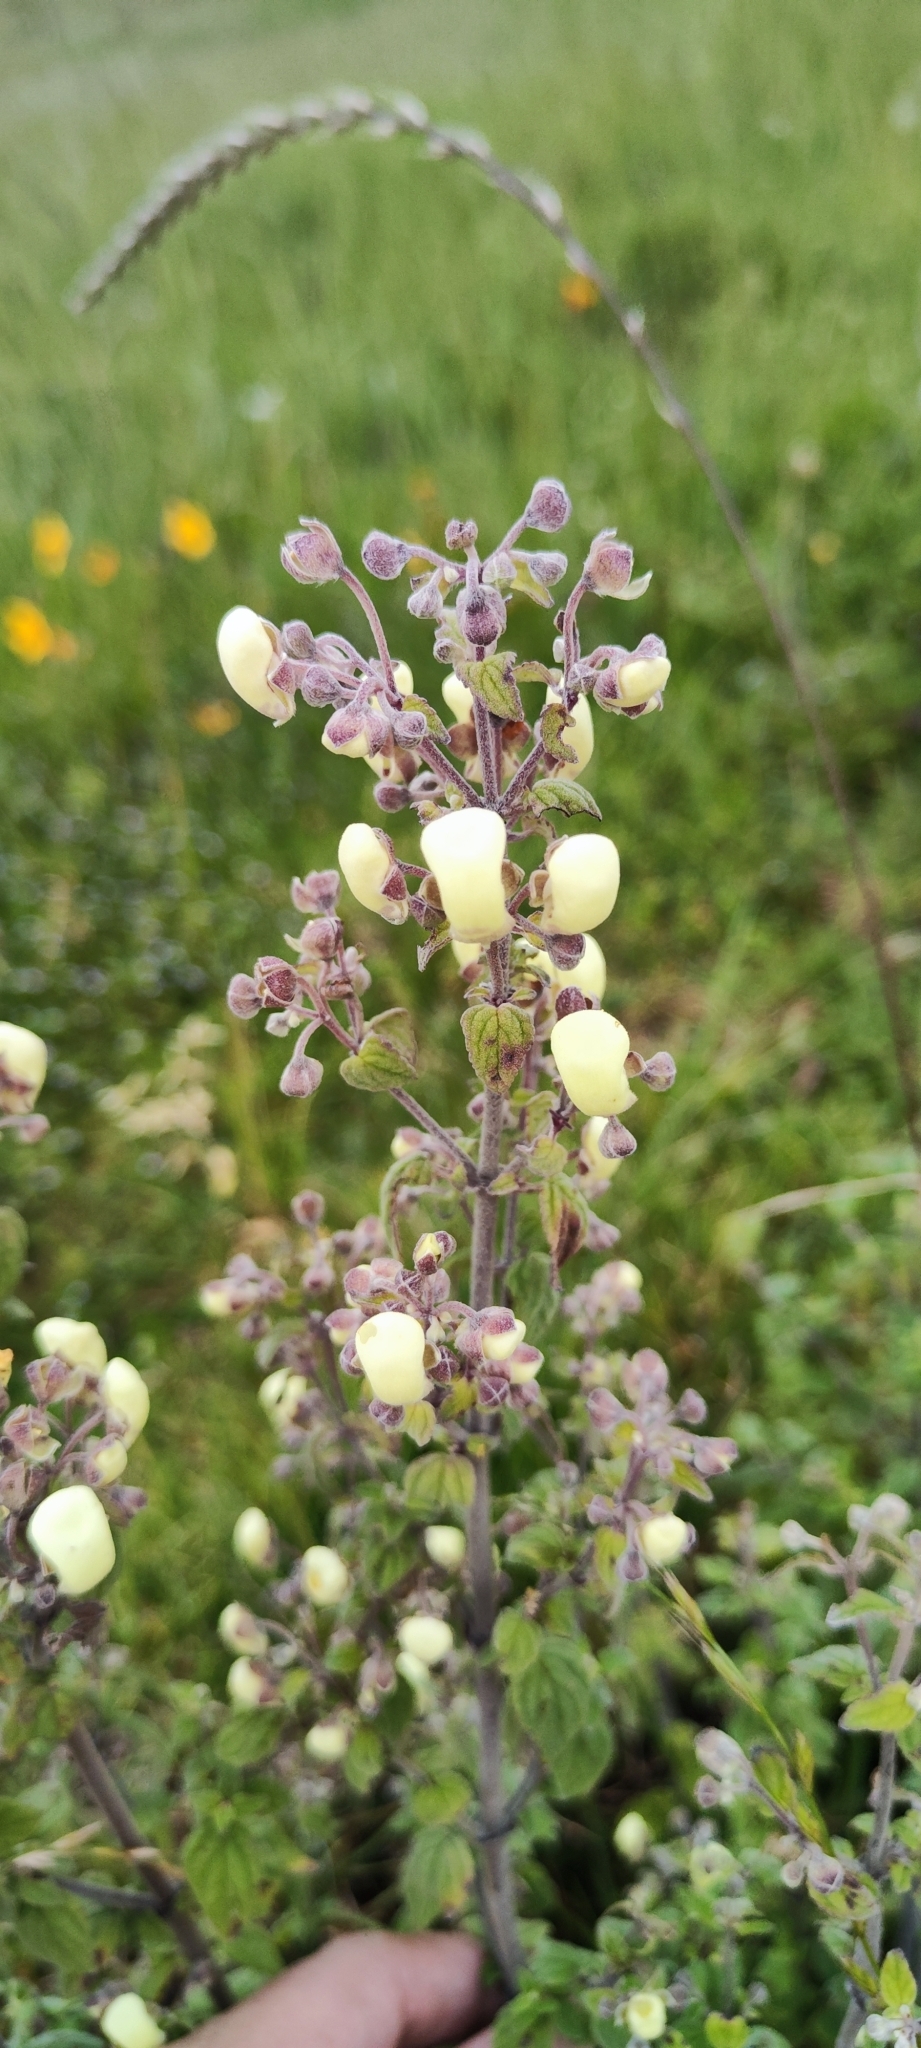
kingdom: Plantae
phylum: Tracheophyta
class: Magnoliopsida
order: Lamiales
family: Calceolariaceae
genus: Calceolaria
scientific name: Calceolaria virgata
